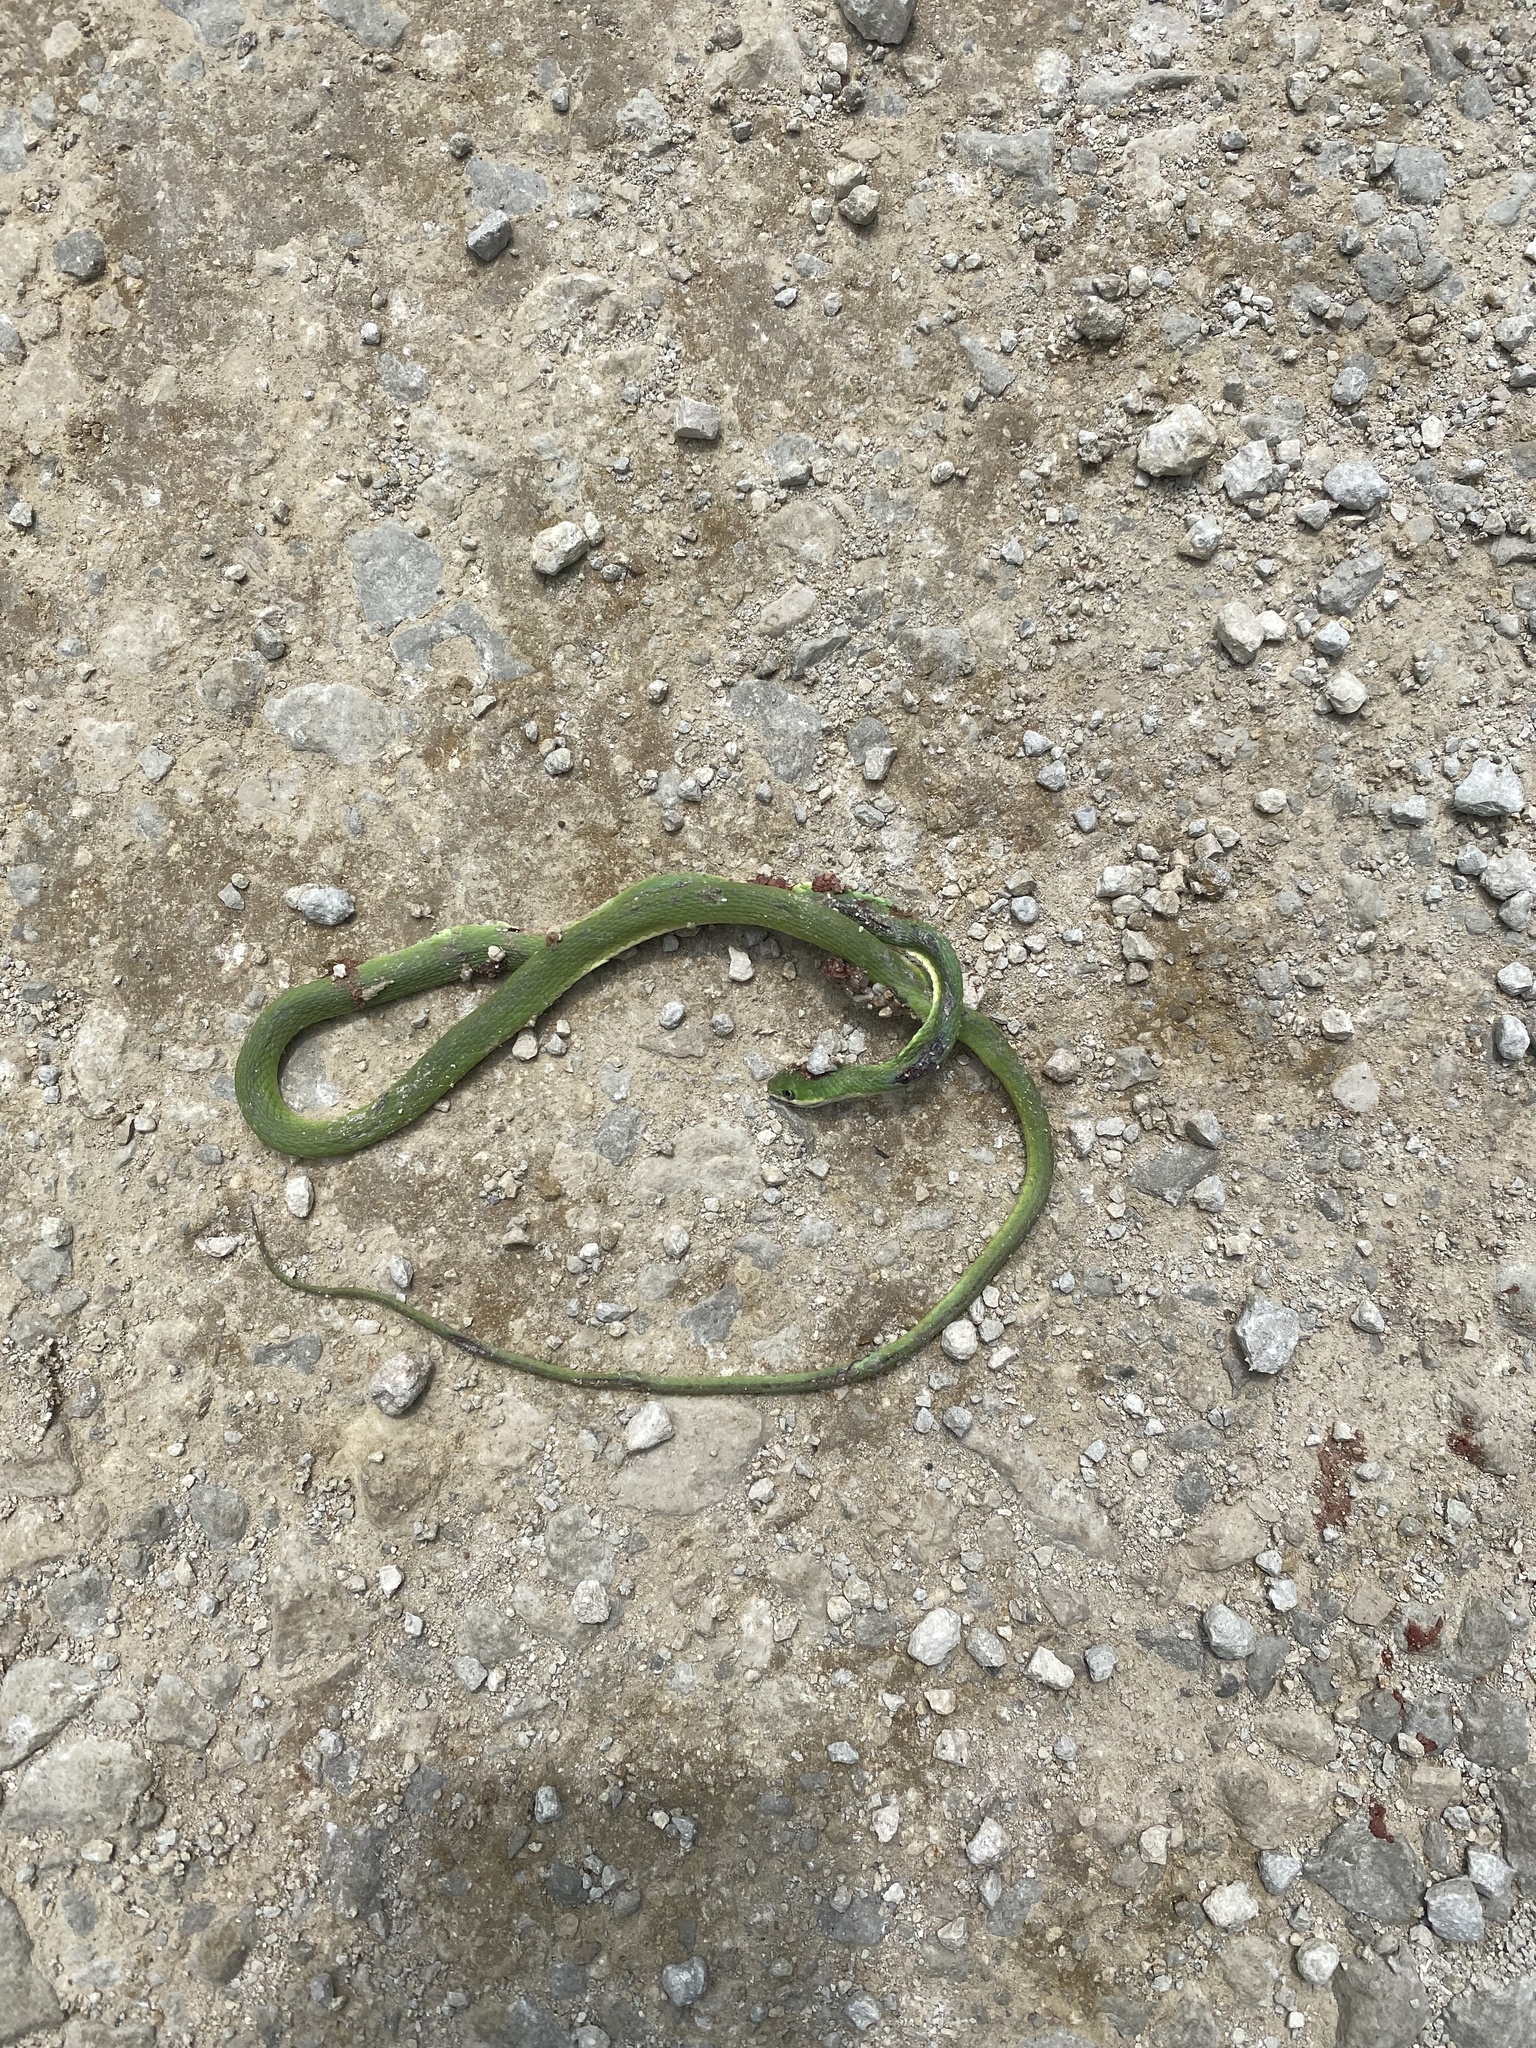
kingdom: Animalia
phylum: Chordata
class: Squamata
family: Colubridae
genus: Opheodrys
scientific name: Opheodrys aestivus
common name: Rough greensnake
